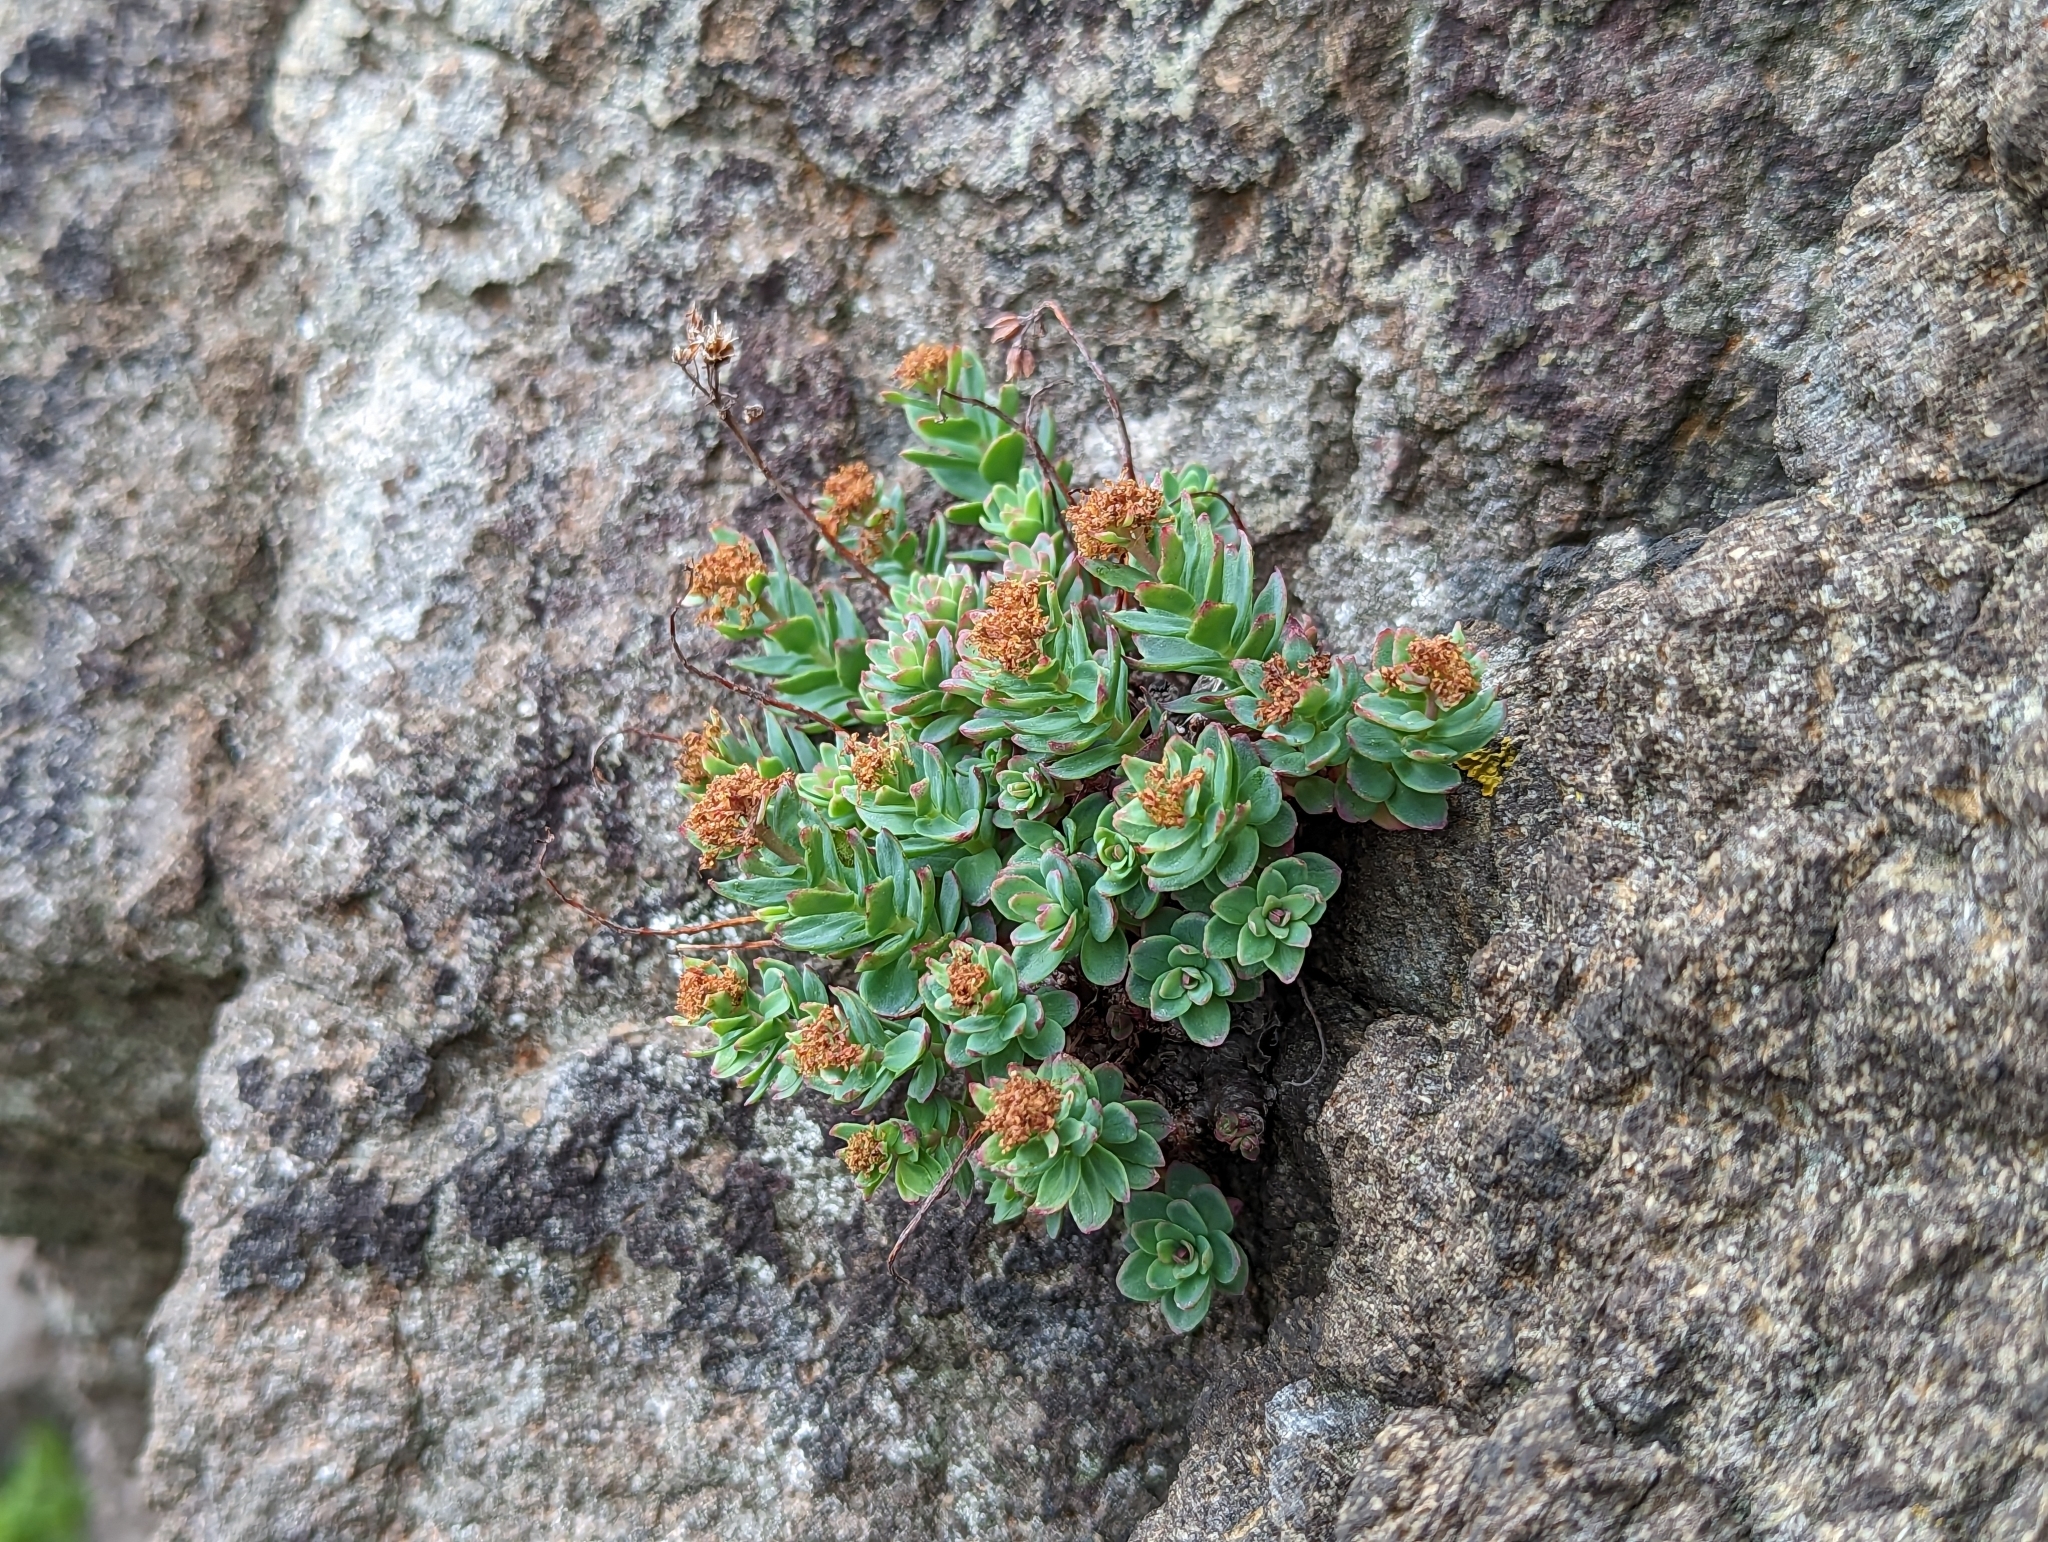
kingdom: Plantae
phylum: Tracheophyta
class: Magnoliopsida
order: Saxifragales
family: Crassulaceae
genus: Rhodiola
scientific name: Rhodiola rosea
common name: Roseroot
